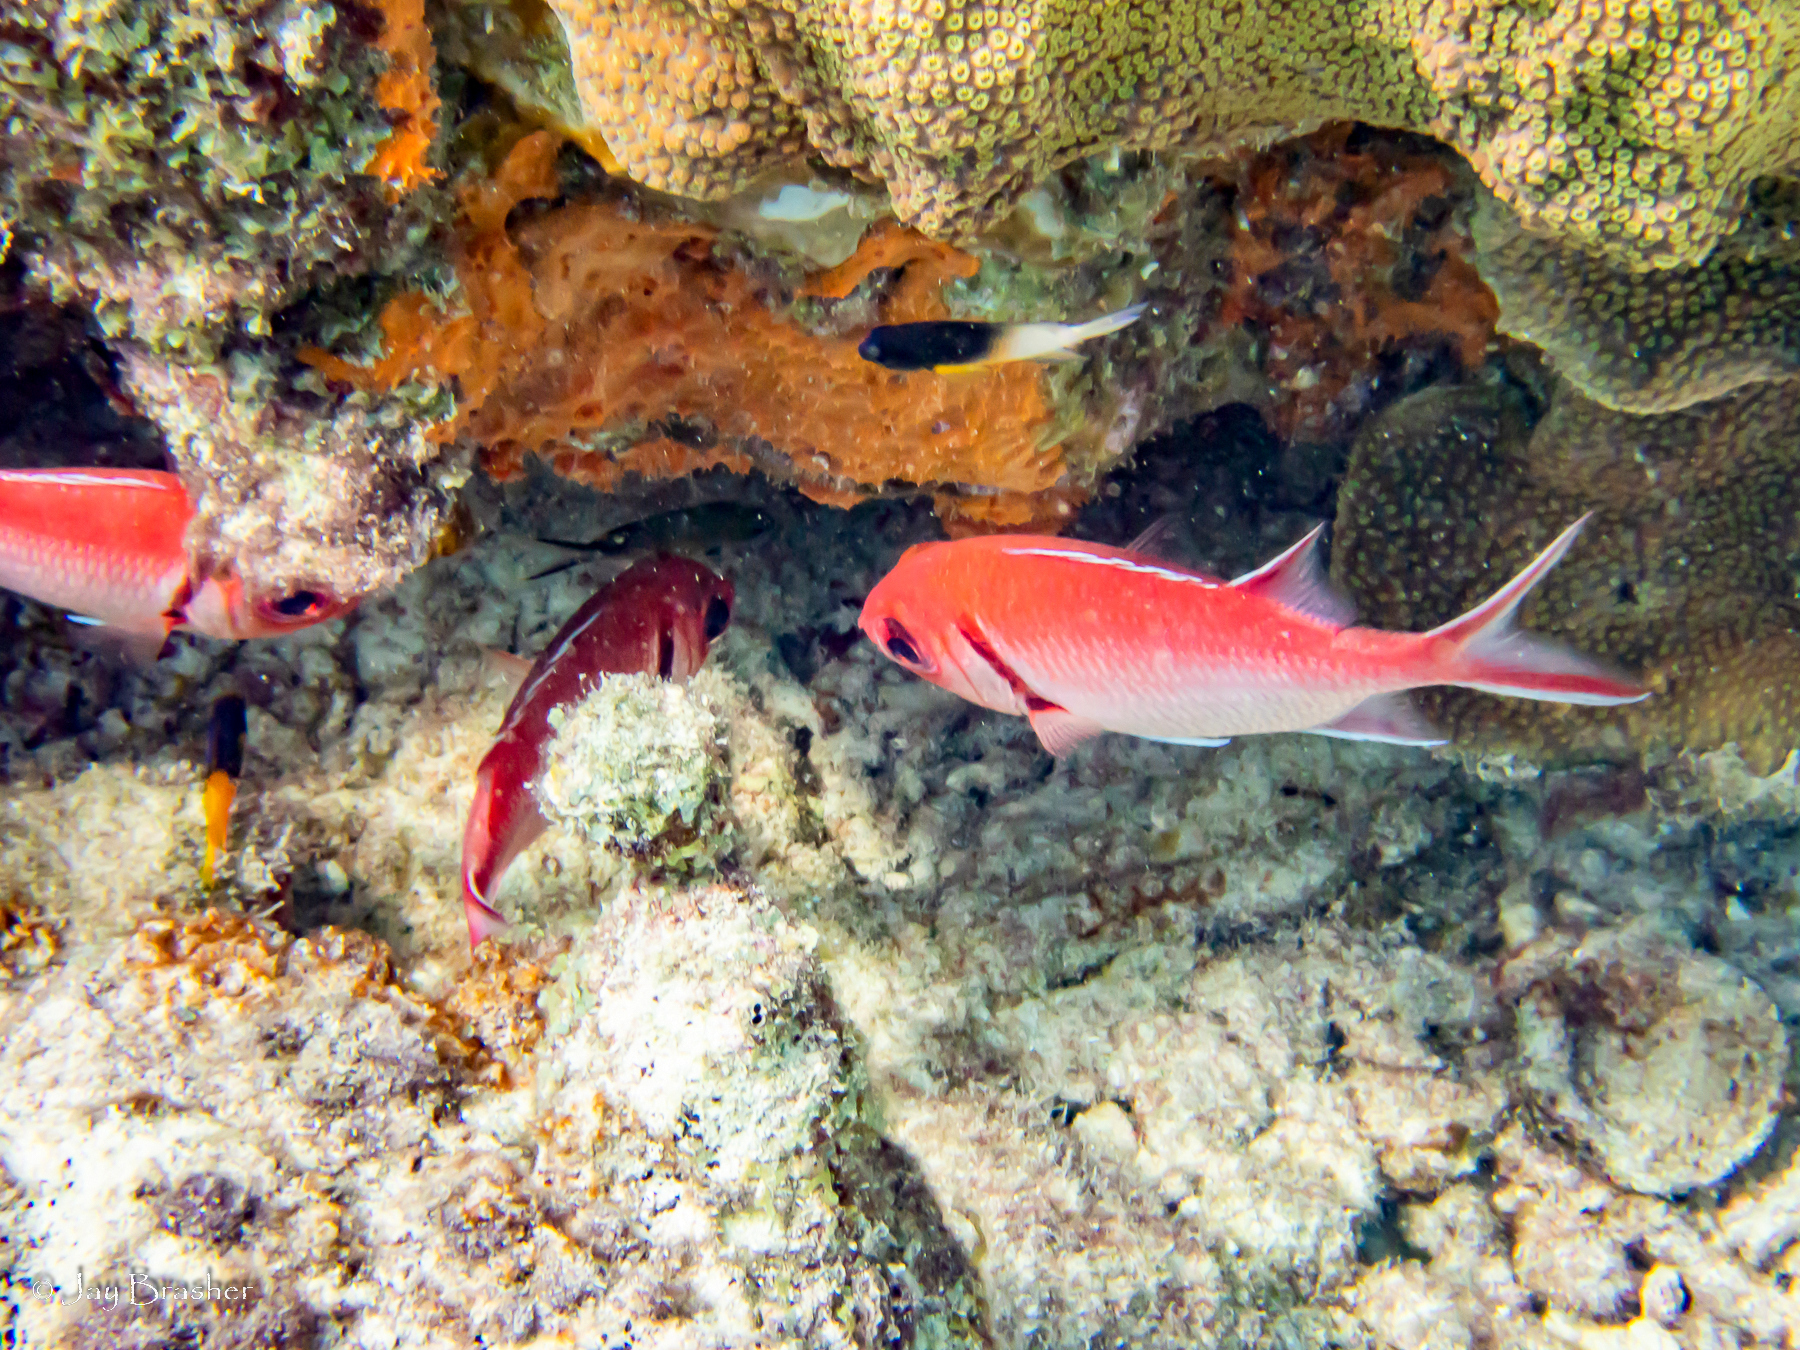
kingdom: Animalia
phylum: Chordata
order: Beryciformes
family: Holocentridae
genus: Myripristis
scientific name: Myripristis jacobus
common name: Blackbar soldierfish
